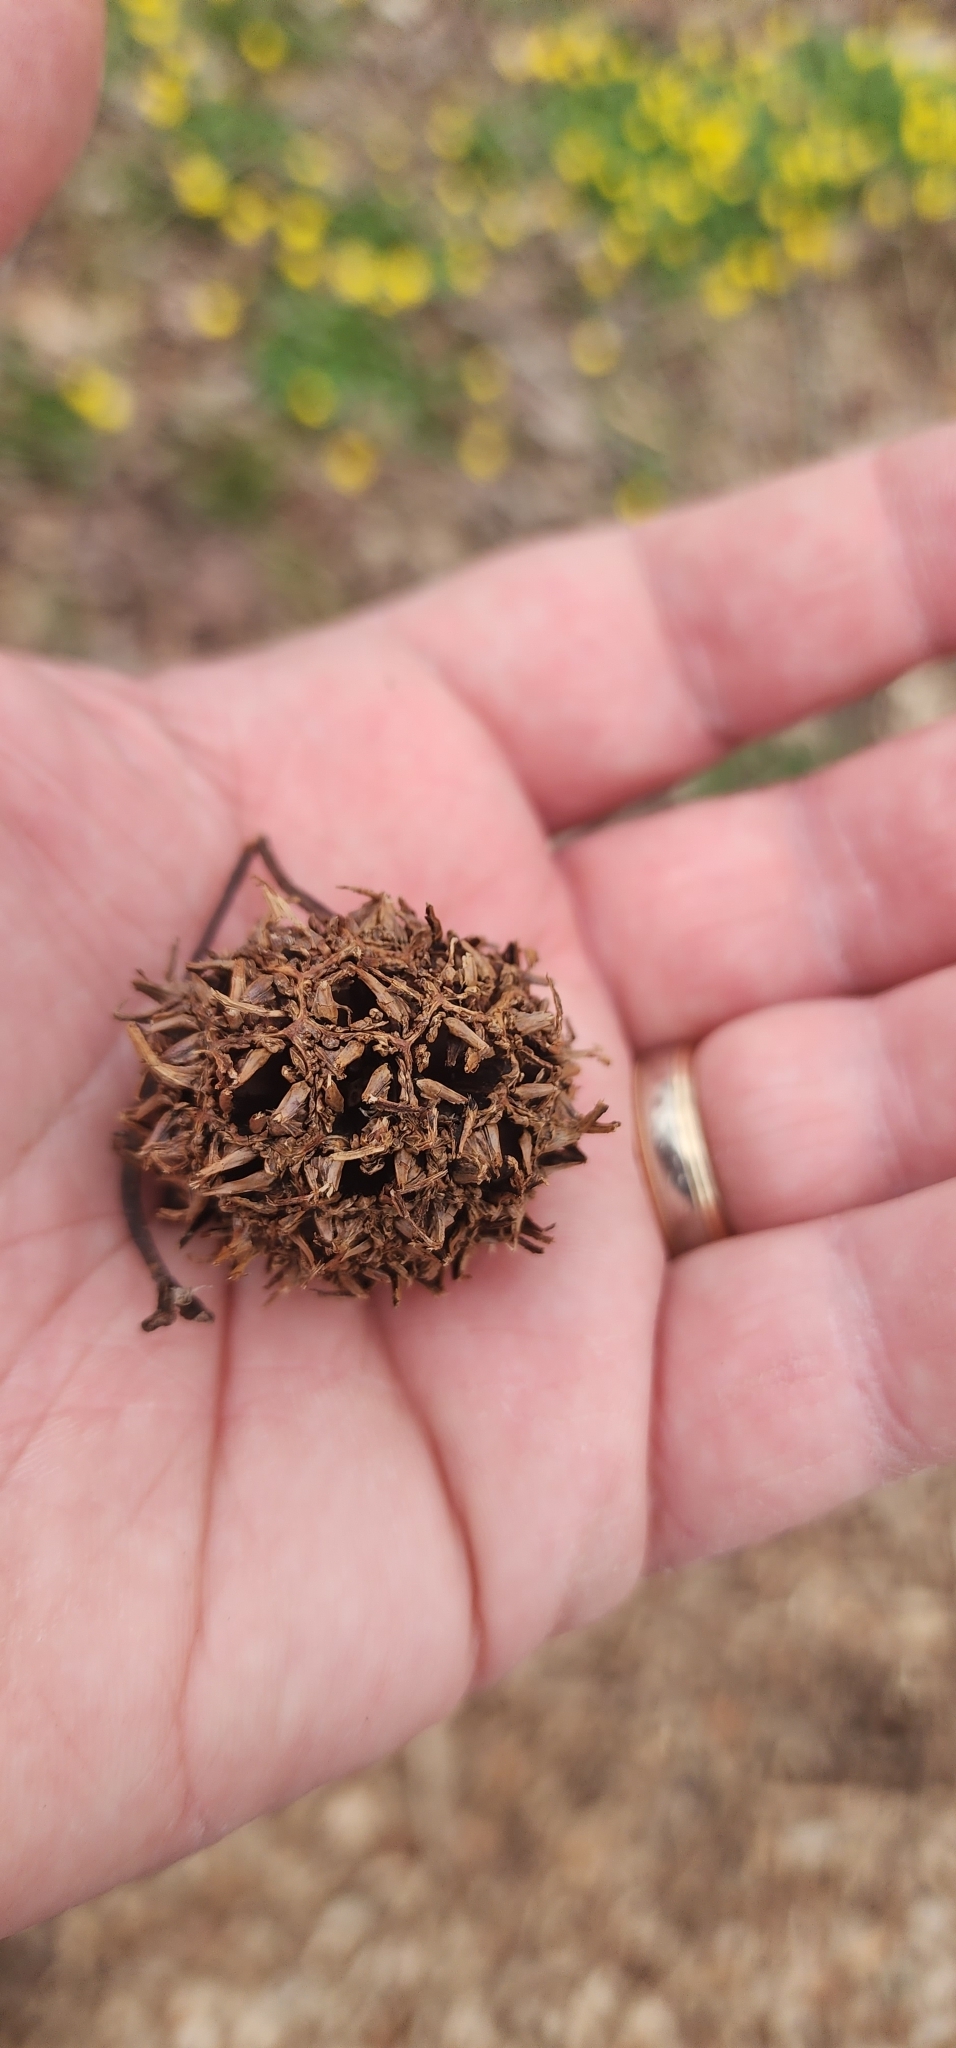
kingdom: Plantae
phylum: Tracheophyta
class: Magnoliopsida
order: Saxifragales
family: Altingiaceae
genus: Liquidambar
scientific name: Liquidambar styraciflua
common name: Sweet gum
